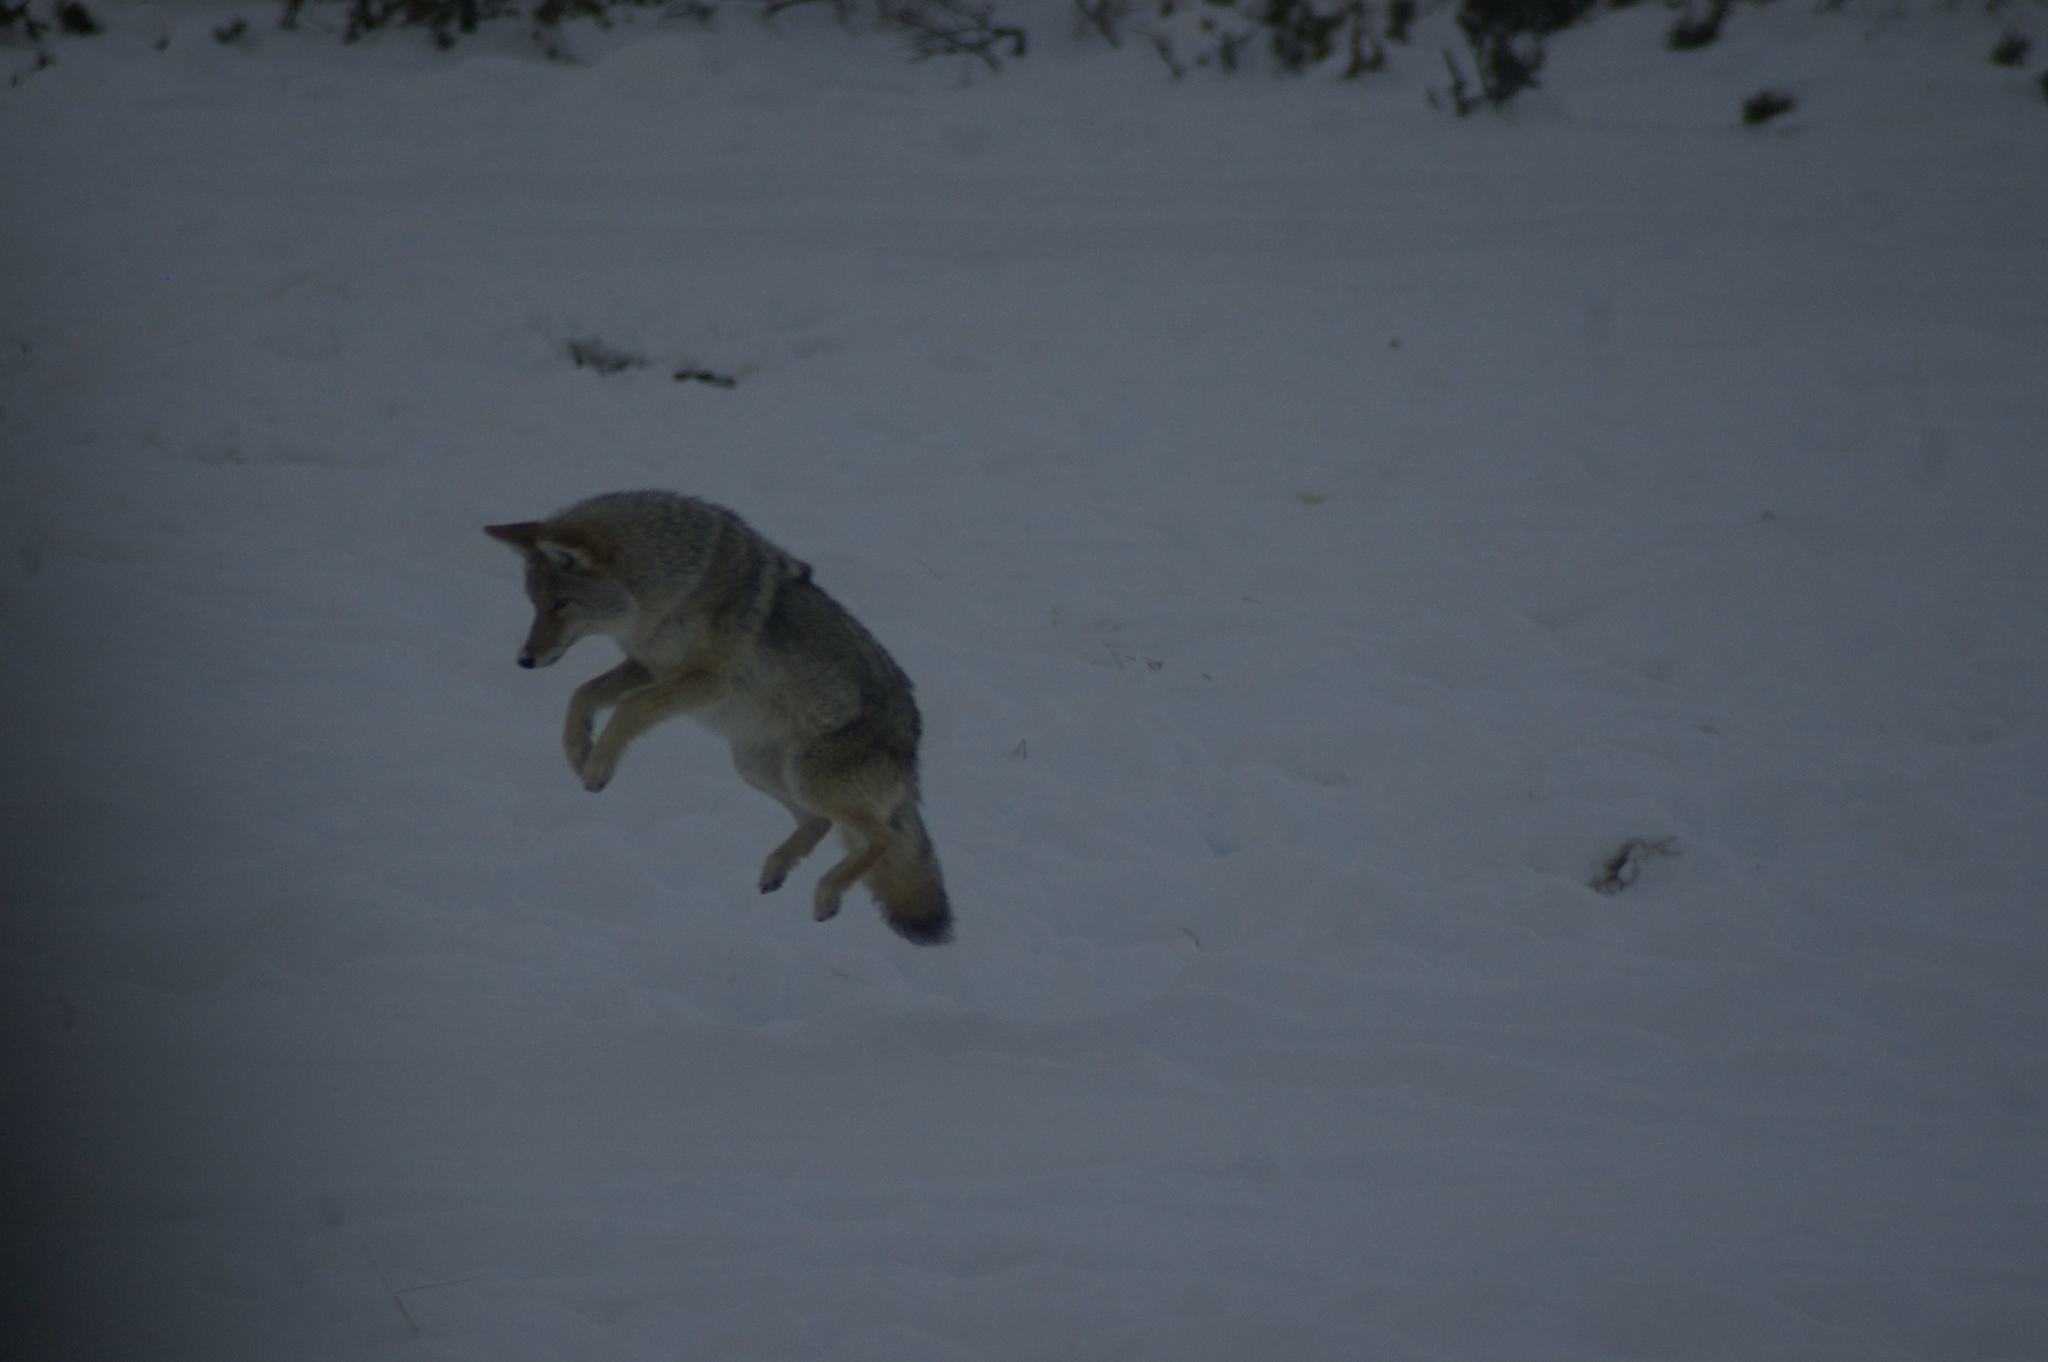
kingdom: Animalia
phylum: Chordata
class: Mammalia
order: Carnivora
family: Canidae
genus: Canis
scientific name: Canis latrans
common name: Coyote
